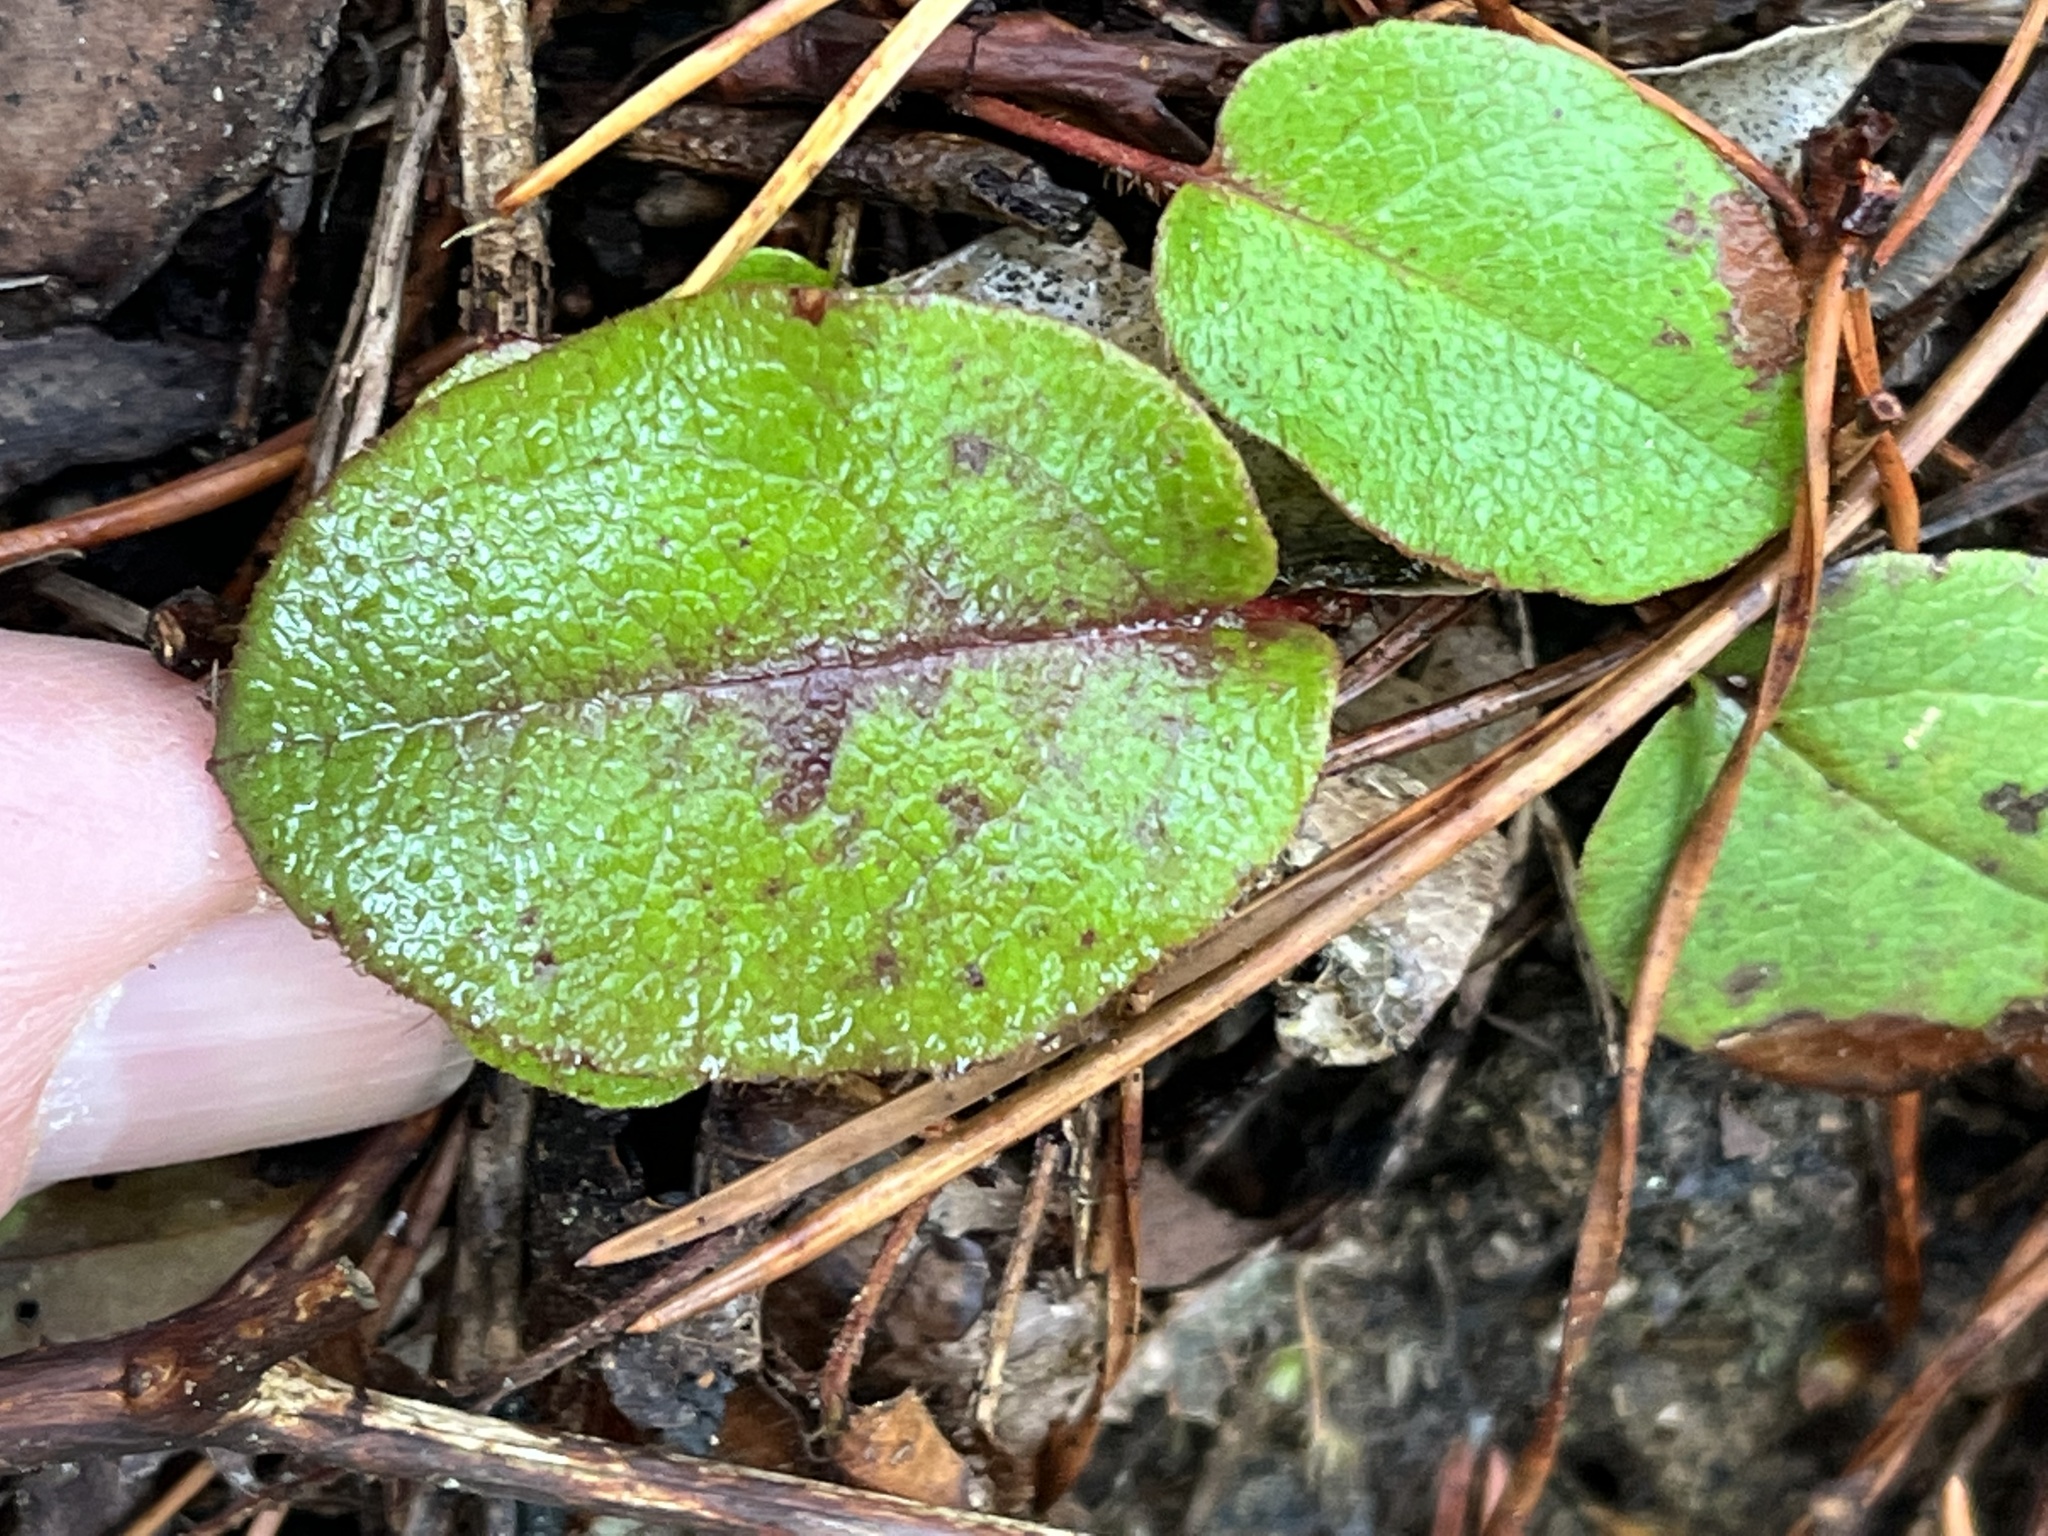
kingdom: Plantae
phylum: Tracheophyta
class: Magnoliopsida
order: Ericales
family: Ericaceae
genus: Epigaea
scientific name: Epigaea repens
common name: Gravelroot
